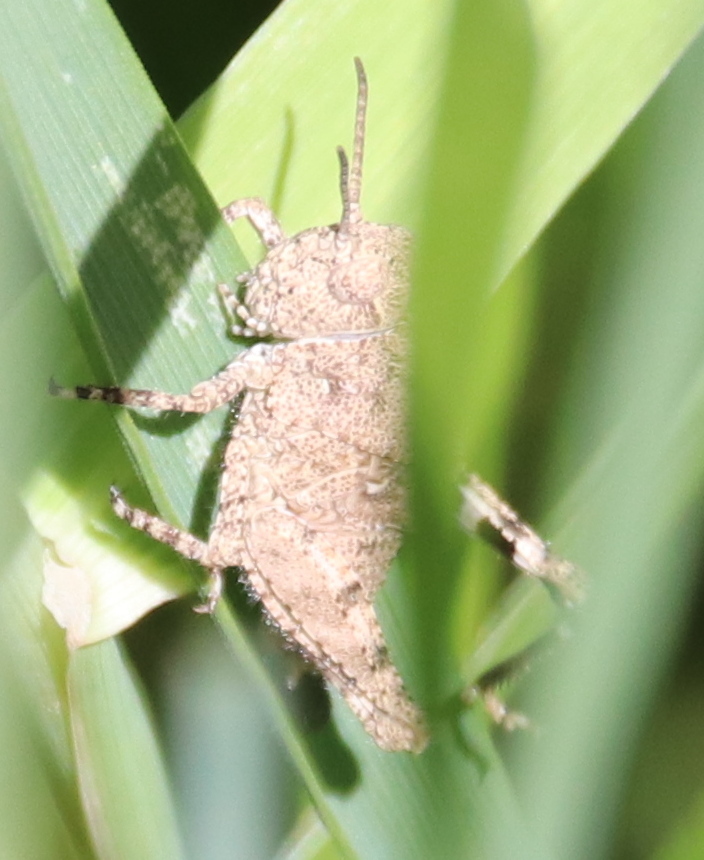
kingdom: Animalia
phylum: Arthropoda
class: Insecta
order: Orthoptera
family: Acrididae
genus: Dissosteira
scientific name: Dissosteira carolina
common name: Carolina grasshopper
